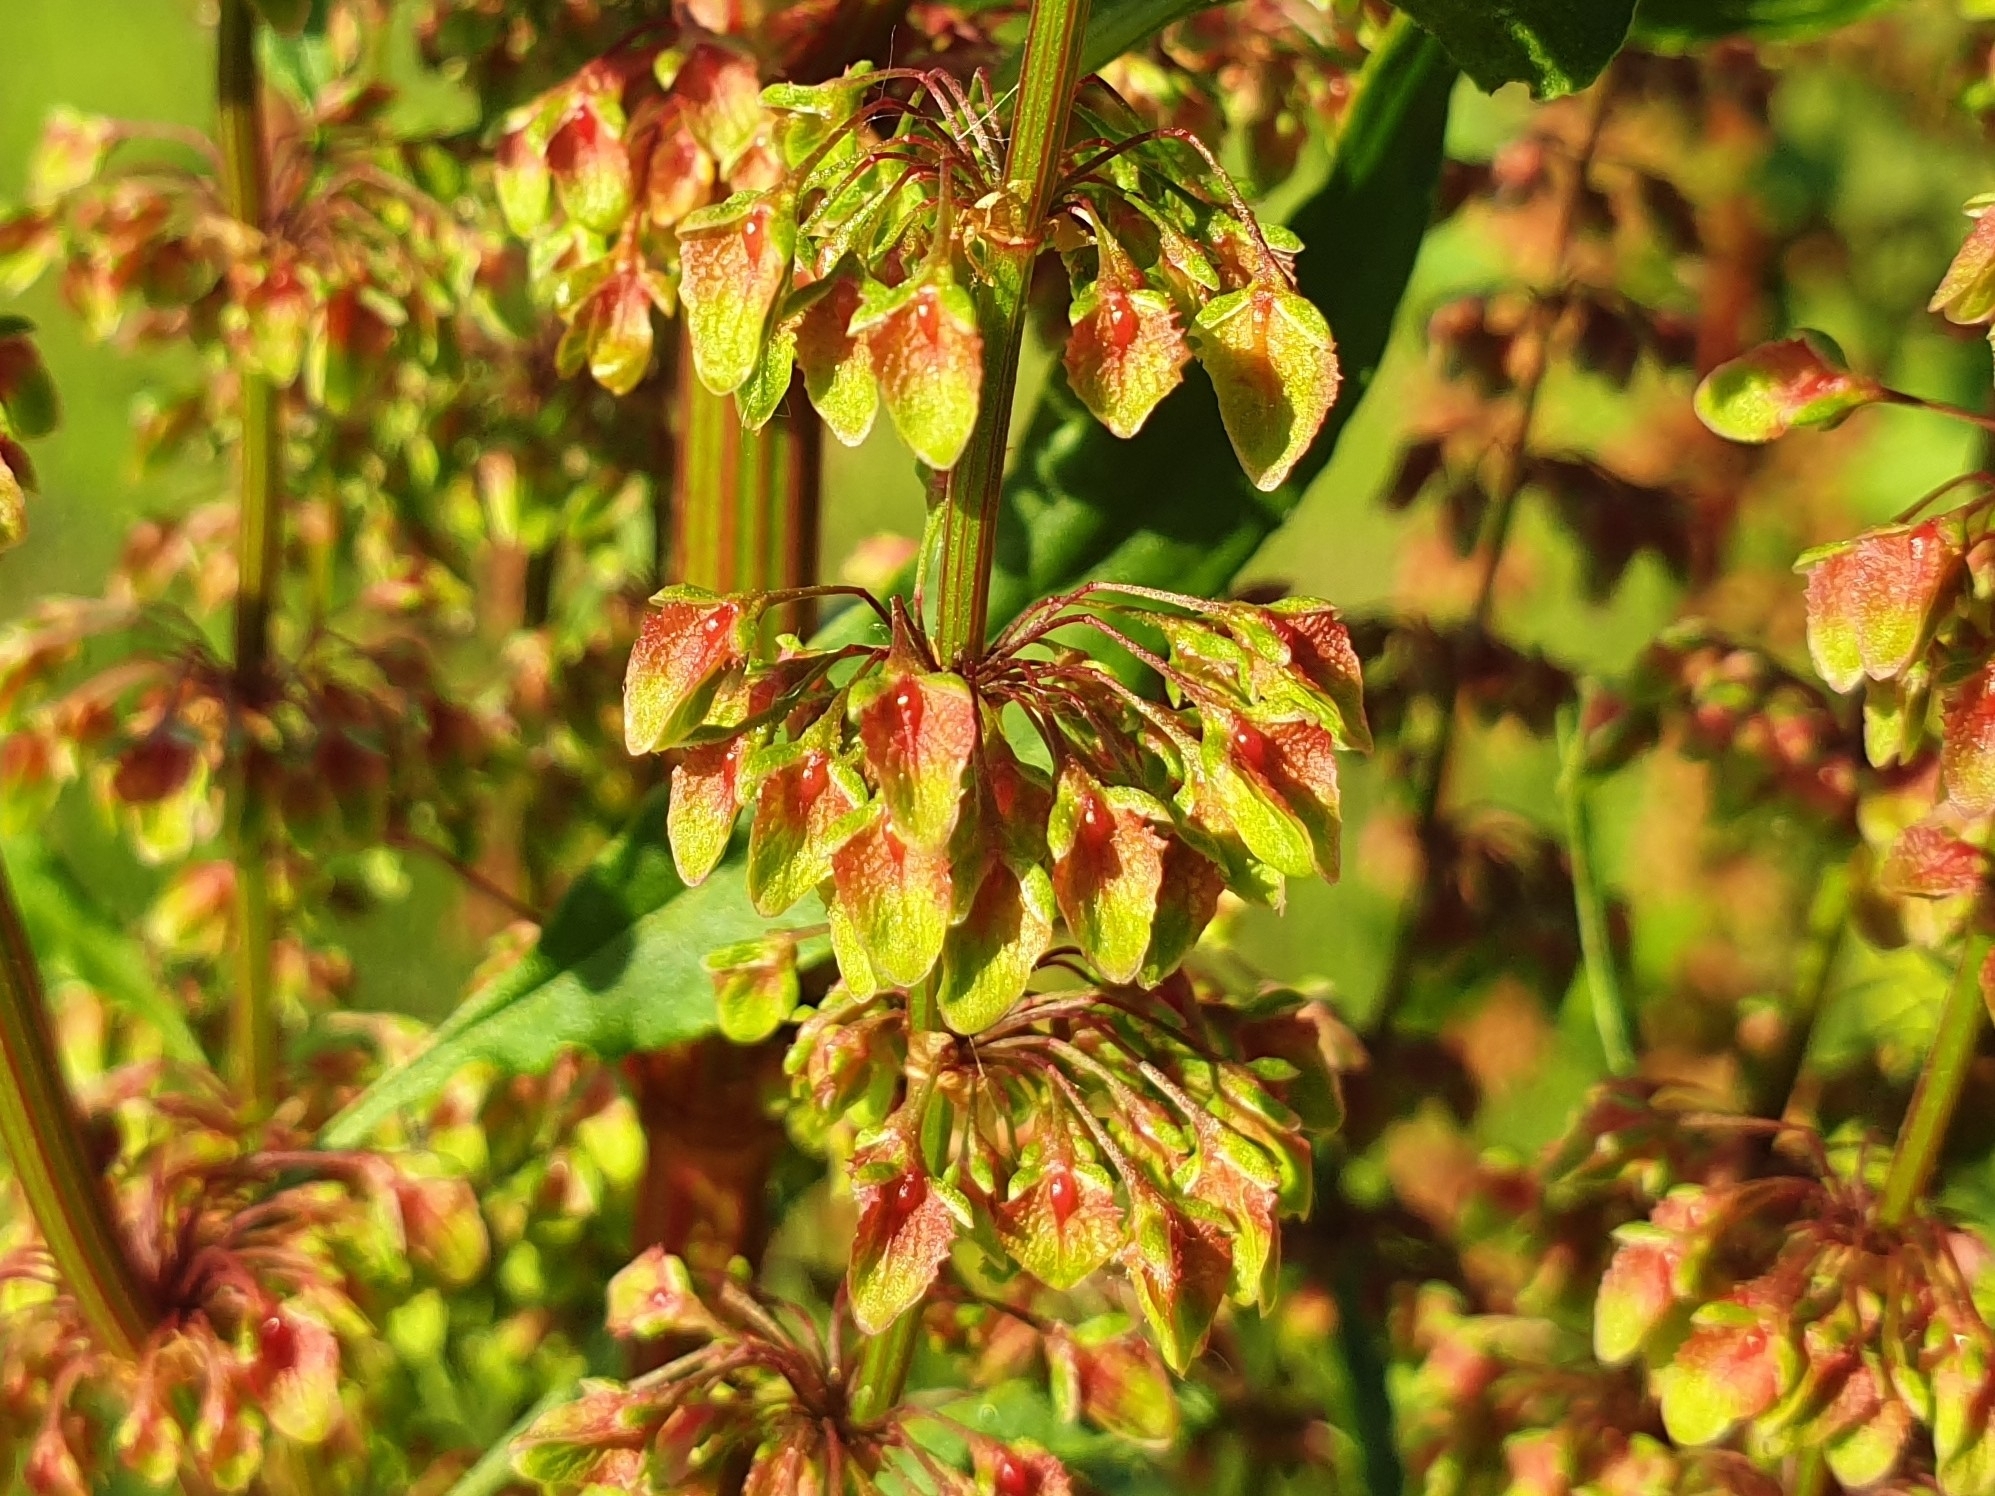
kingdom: Plantae
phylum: Tracheophyta
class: Magnoliopsida
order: Caryophyllales
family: Polygonaceae
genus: Rumex
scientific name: Rumex crispus
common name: Curled dock
